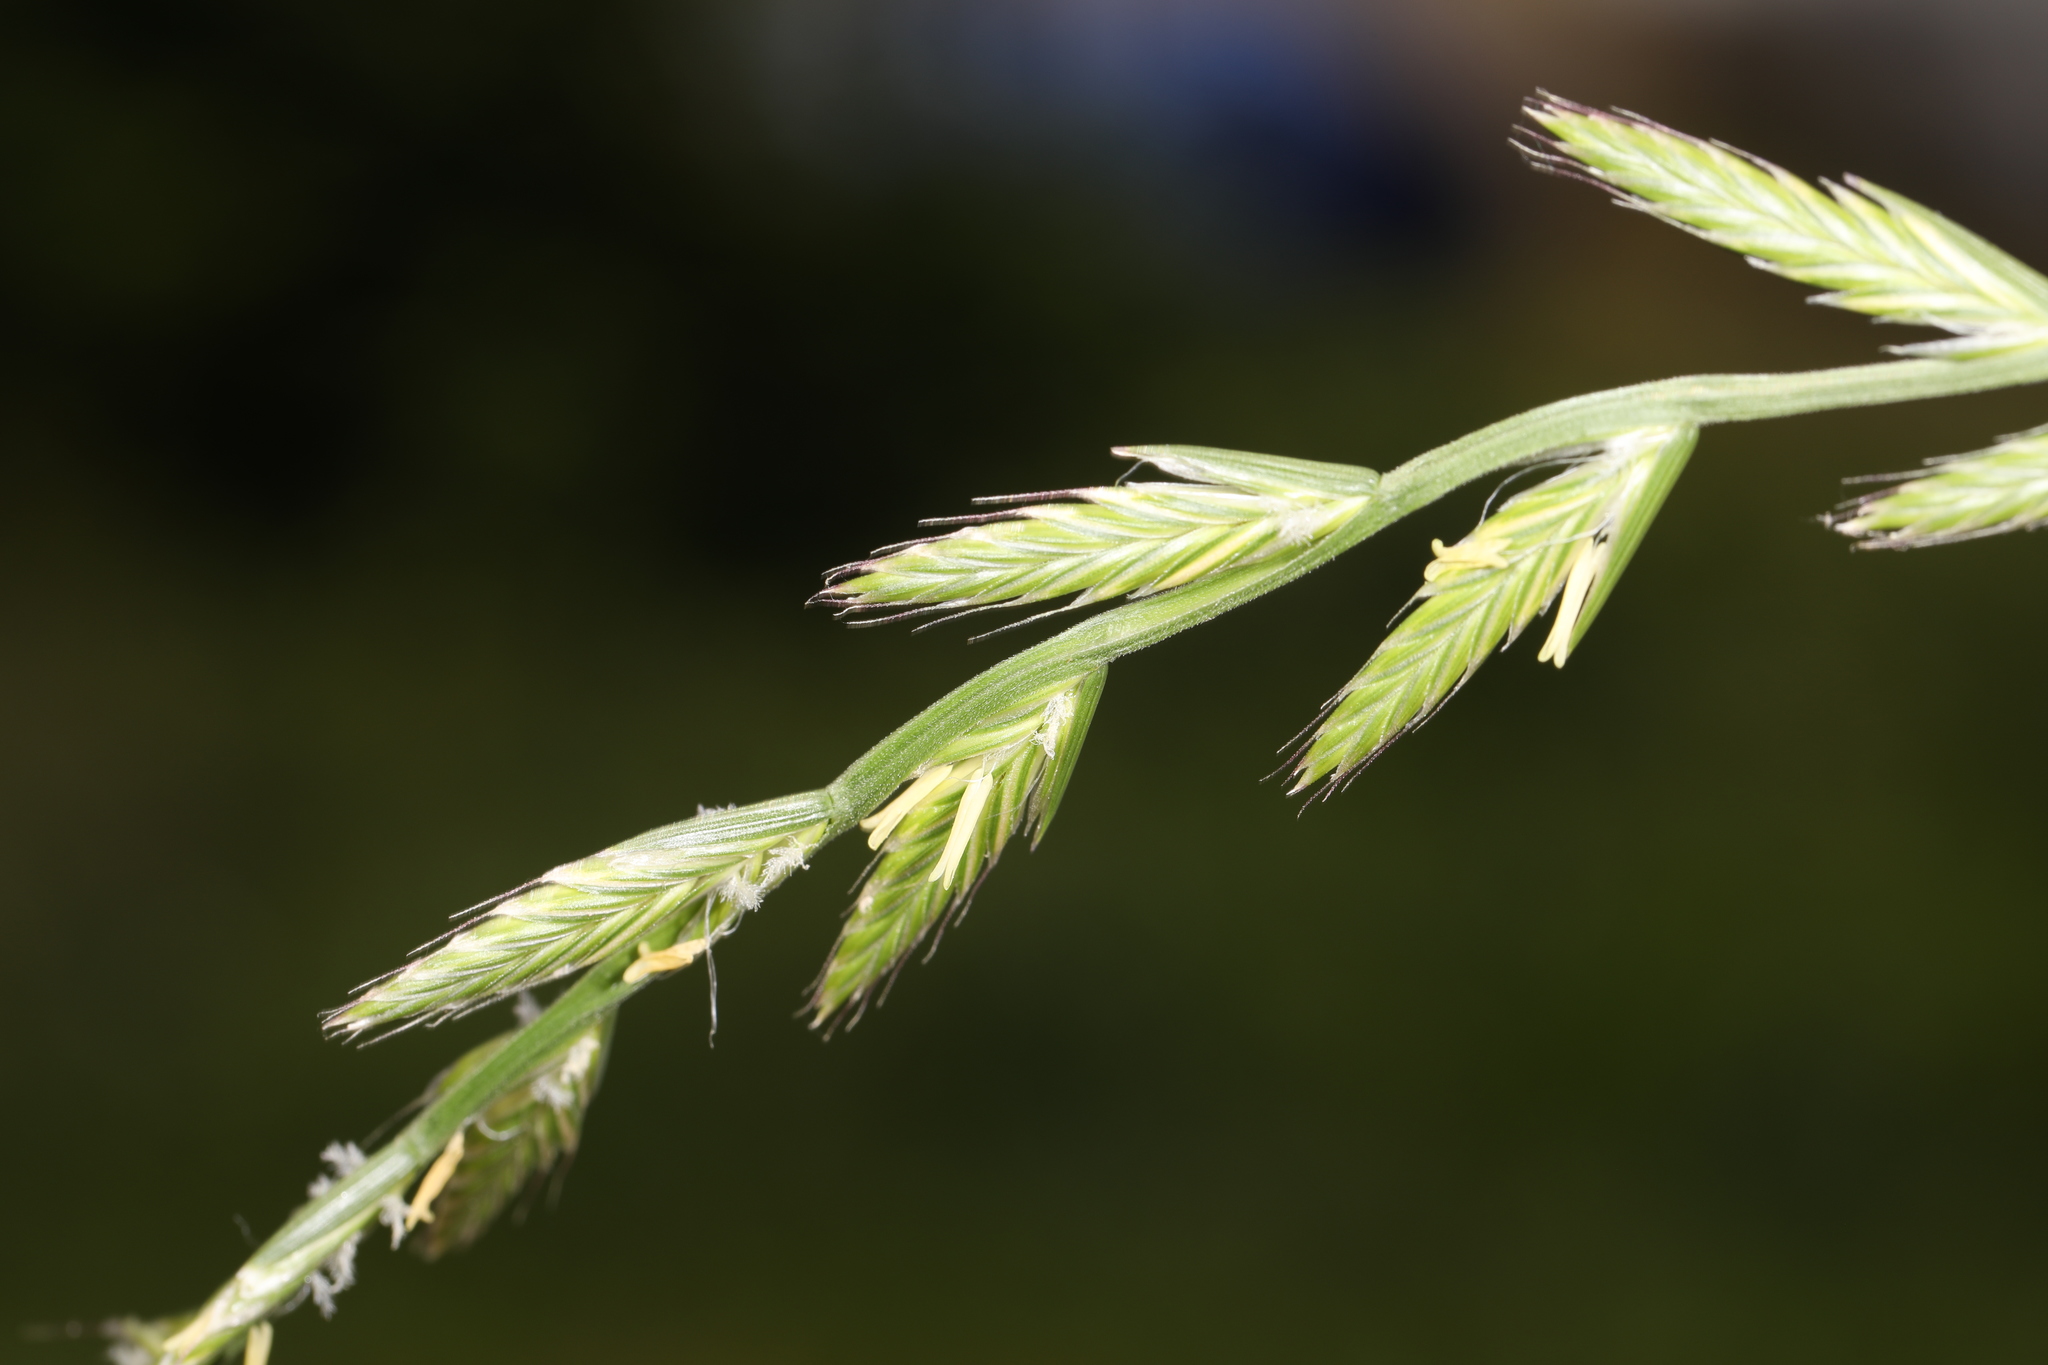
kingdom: Plantae
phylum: Tracheophyta
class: Liliopsida
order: Poales
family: Poaceae
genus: Lolium
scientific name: Lolium perenne
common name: Perennial ryegrass
